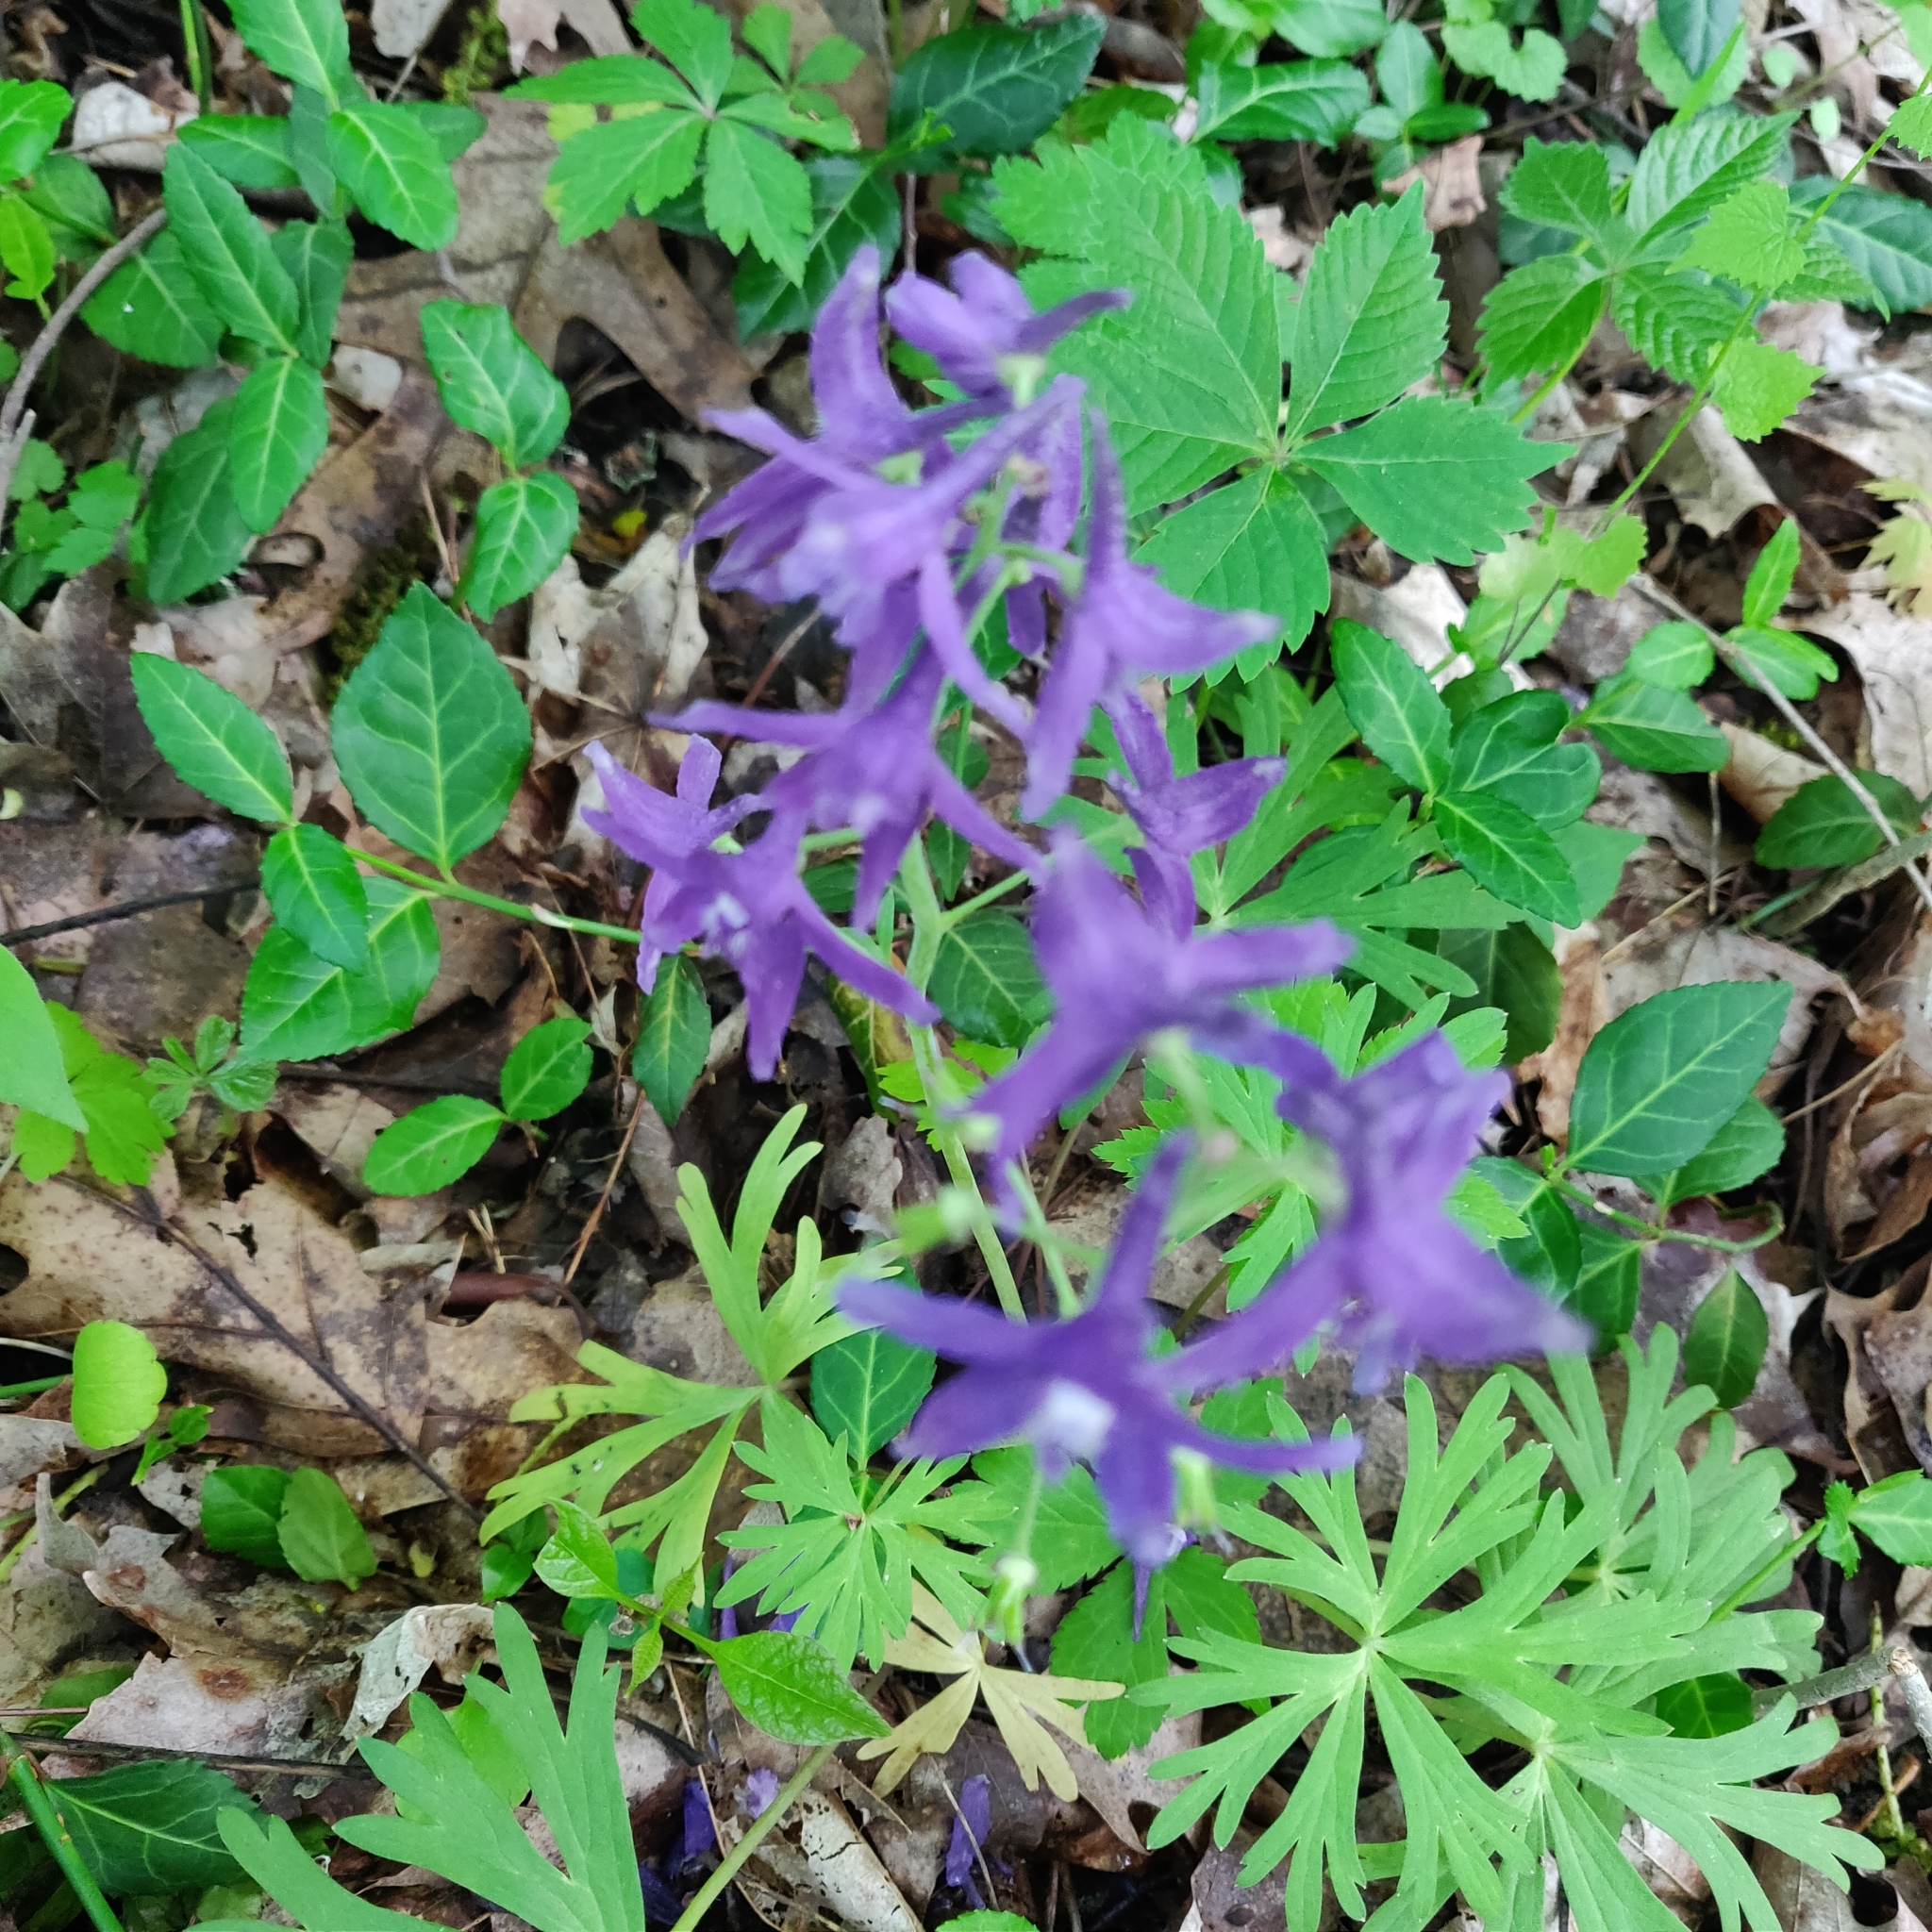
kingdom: Plantae
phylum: Tracheophyta
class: Magnoliopsida
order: Ranunculales
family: Ranunculaceae
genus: Delphinium
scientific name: Delphinium tricorne
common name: Dwarf larkspur
